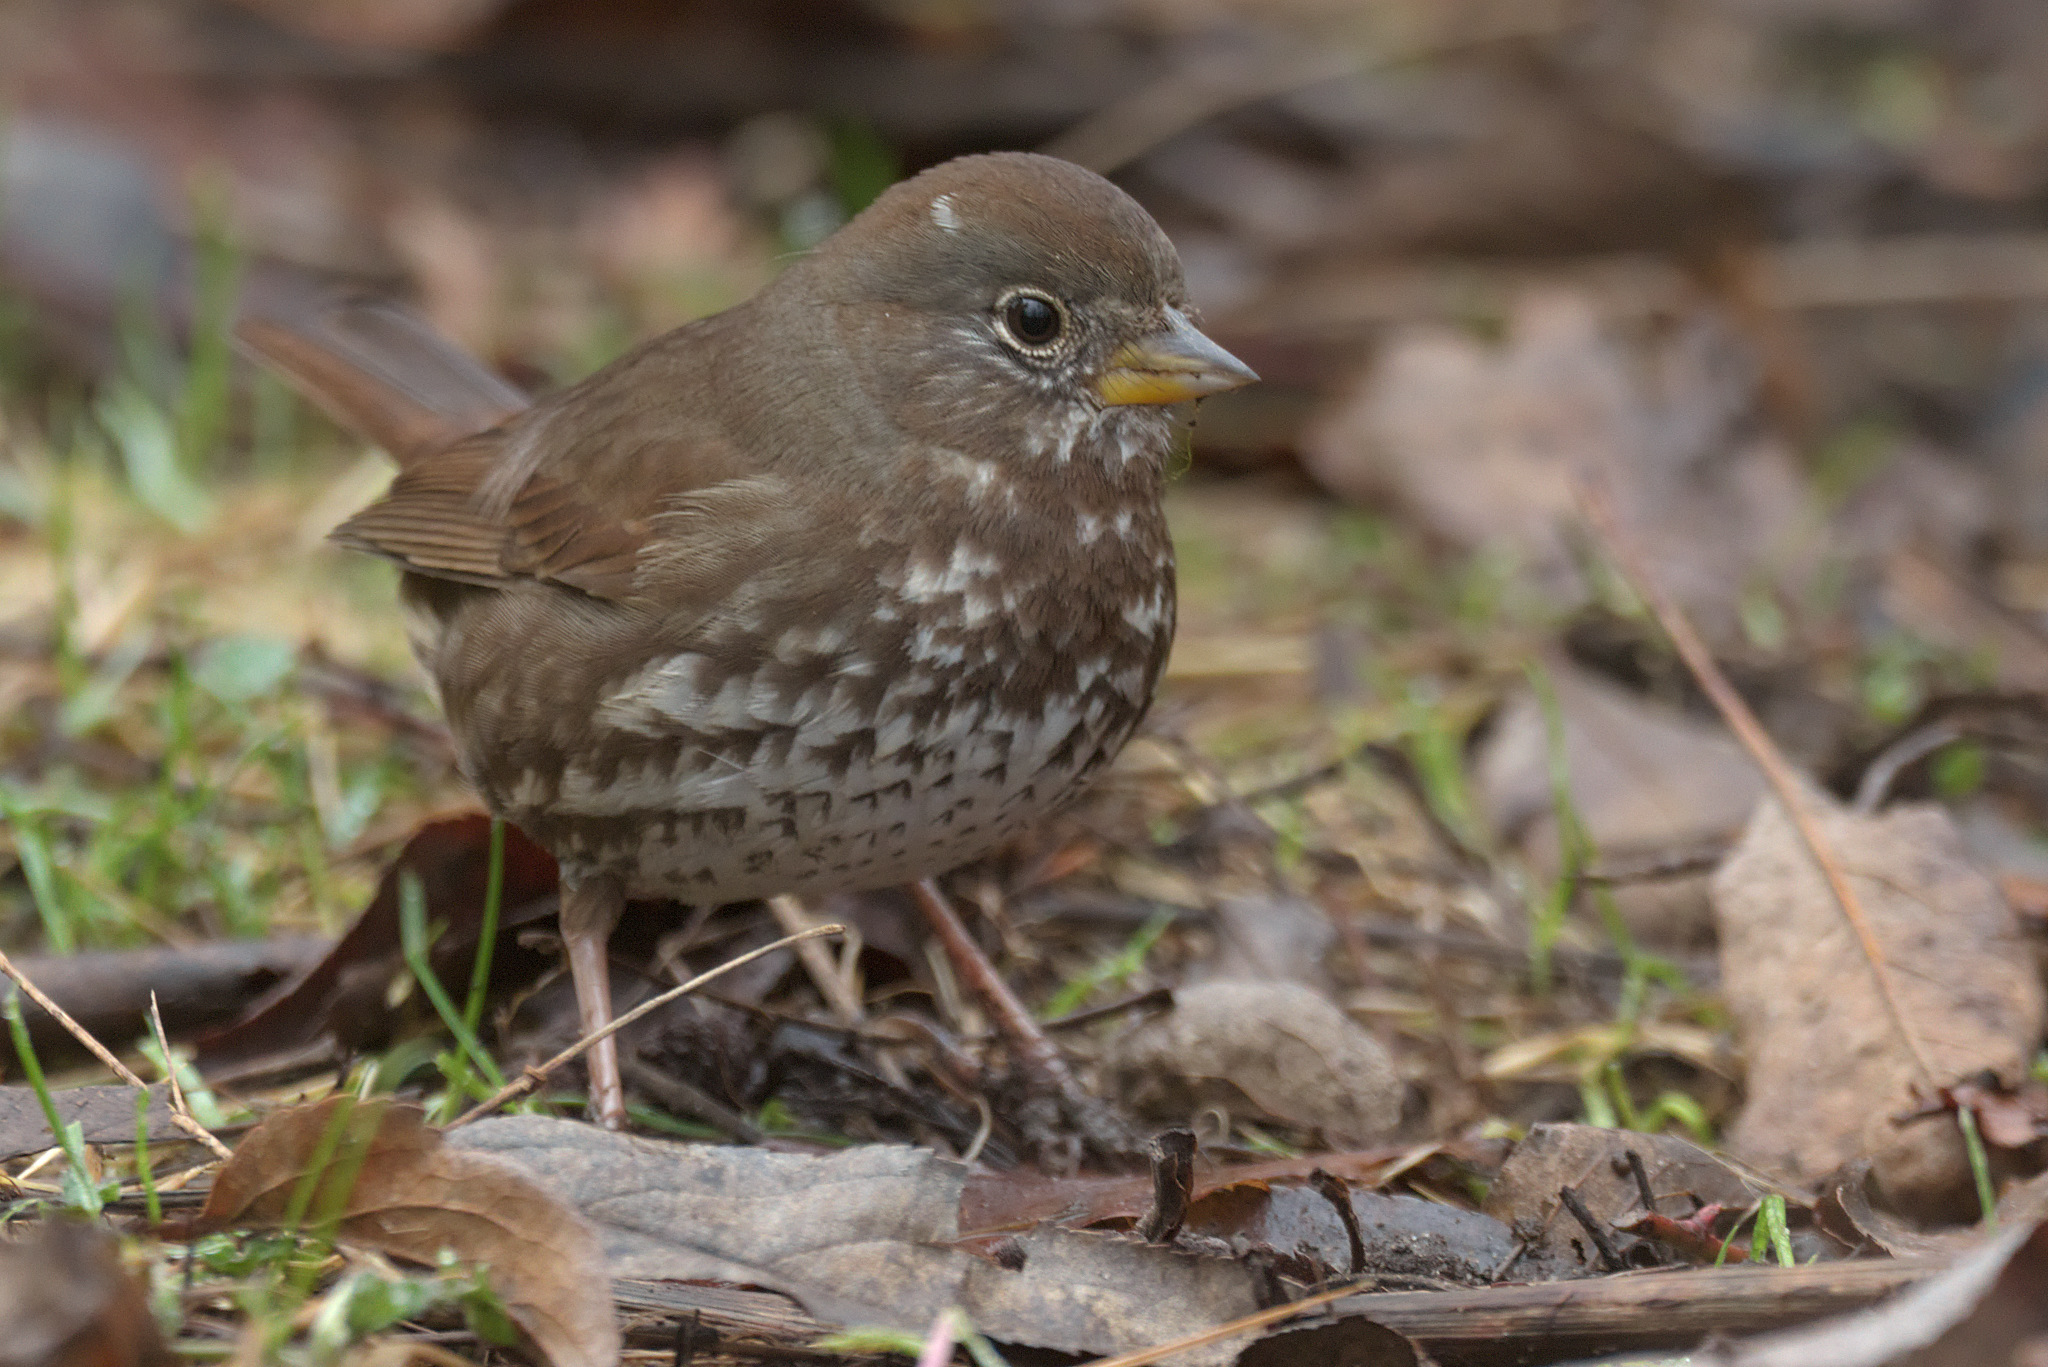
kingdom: Animalia
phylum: Chordata
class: Aves
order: Passeriformes
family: Passerellidae
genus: Passerella
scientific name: Passerella iliaca
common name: Fox sparrow
